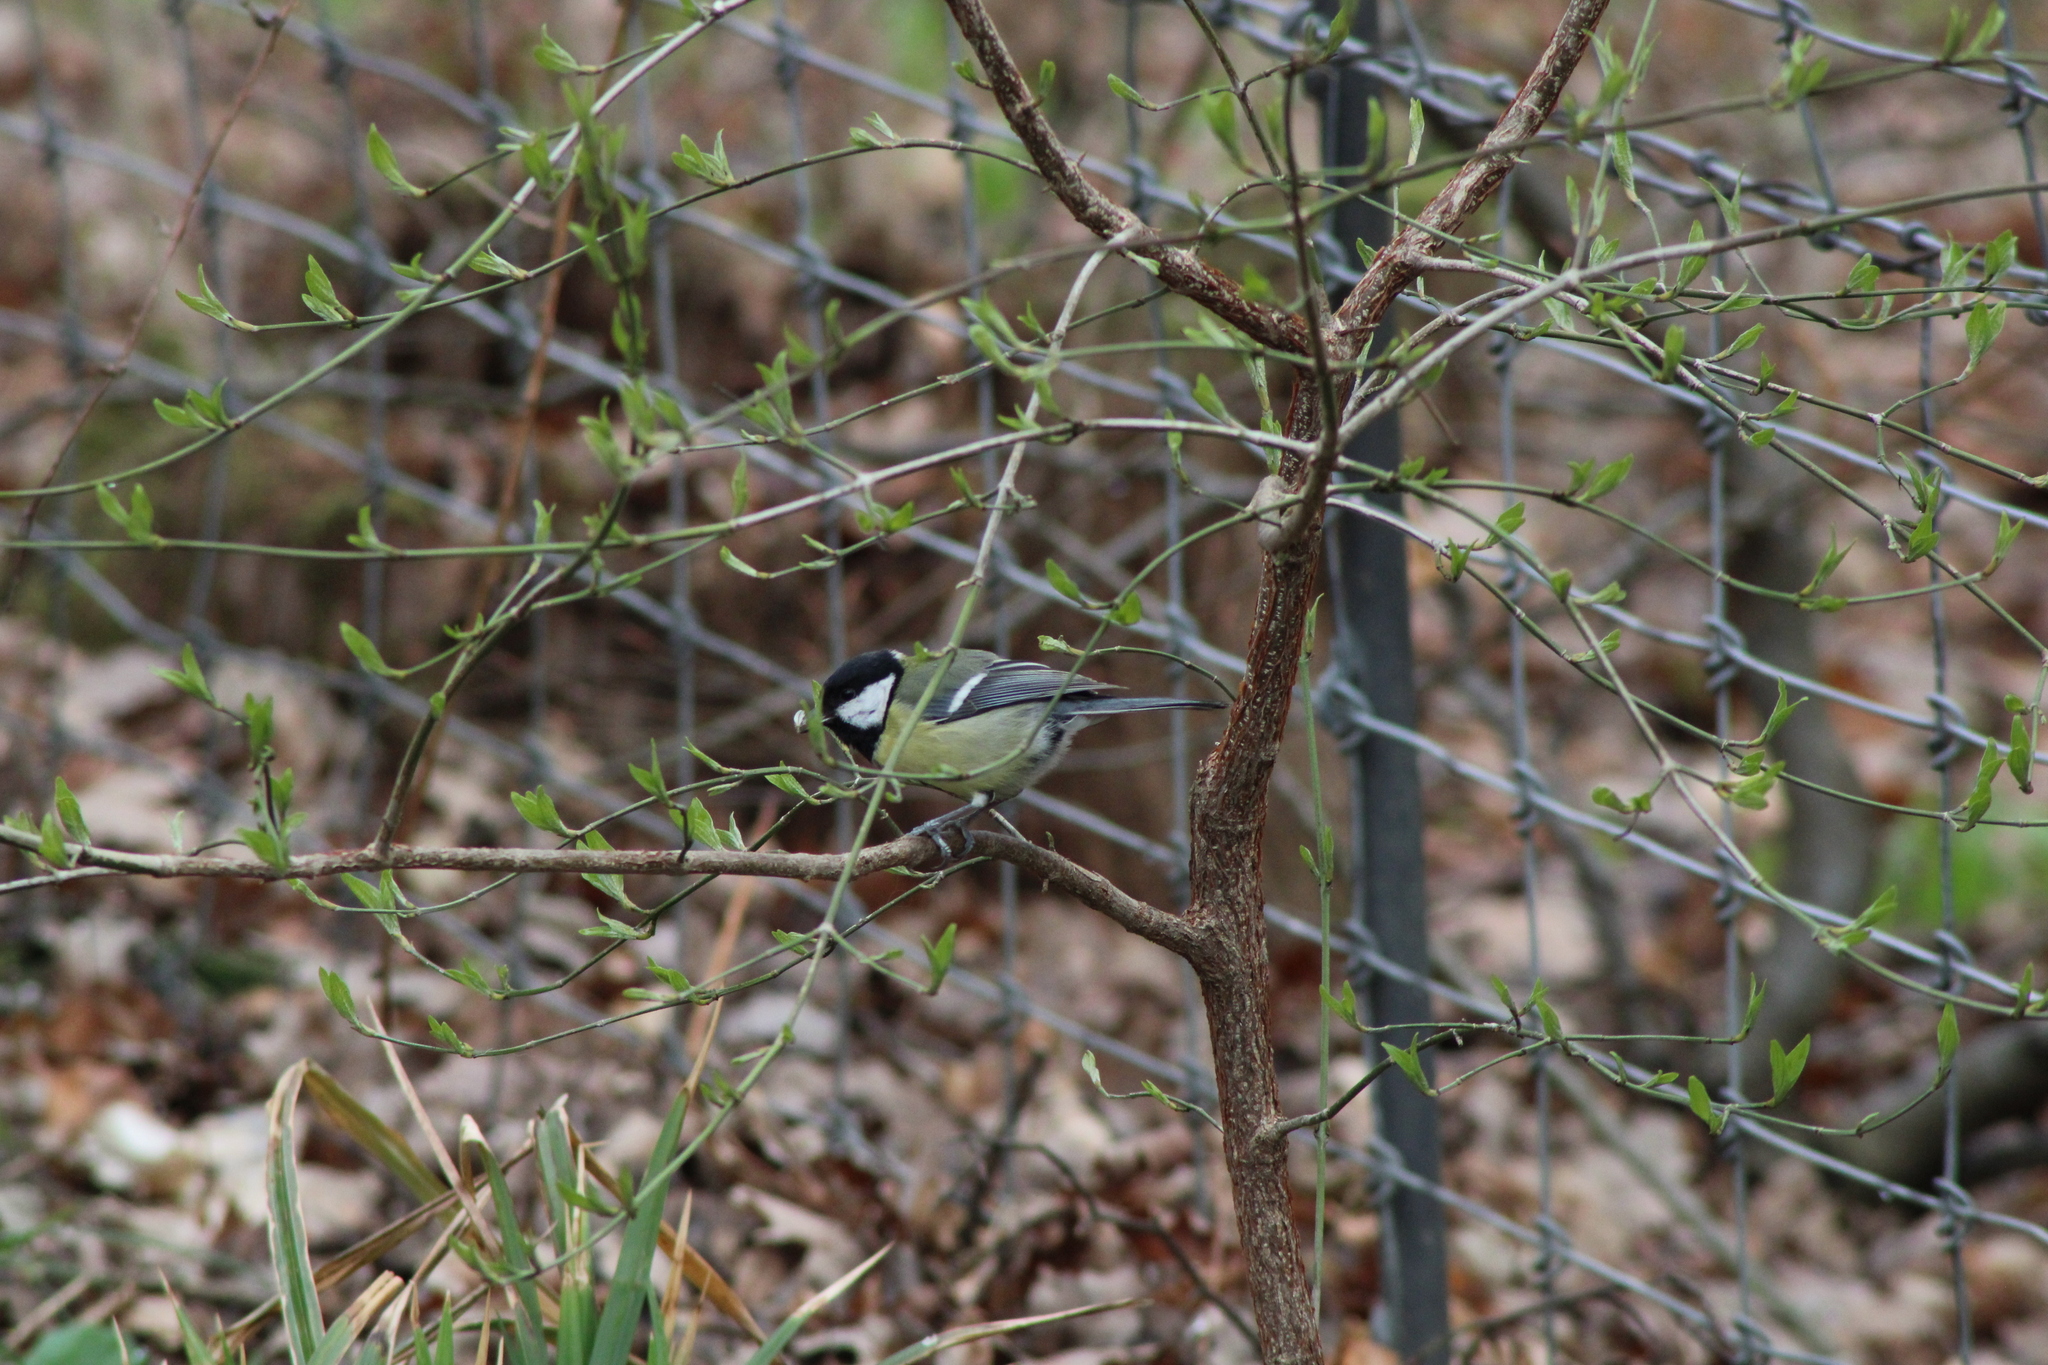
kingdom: Animalia
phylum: Chordata
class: Aves
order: Passeriformes
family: Paridae
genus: Parus
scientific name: Parus major
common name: Great tit
